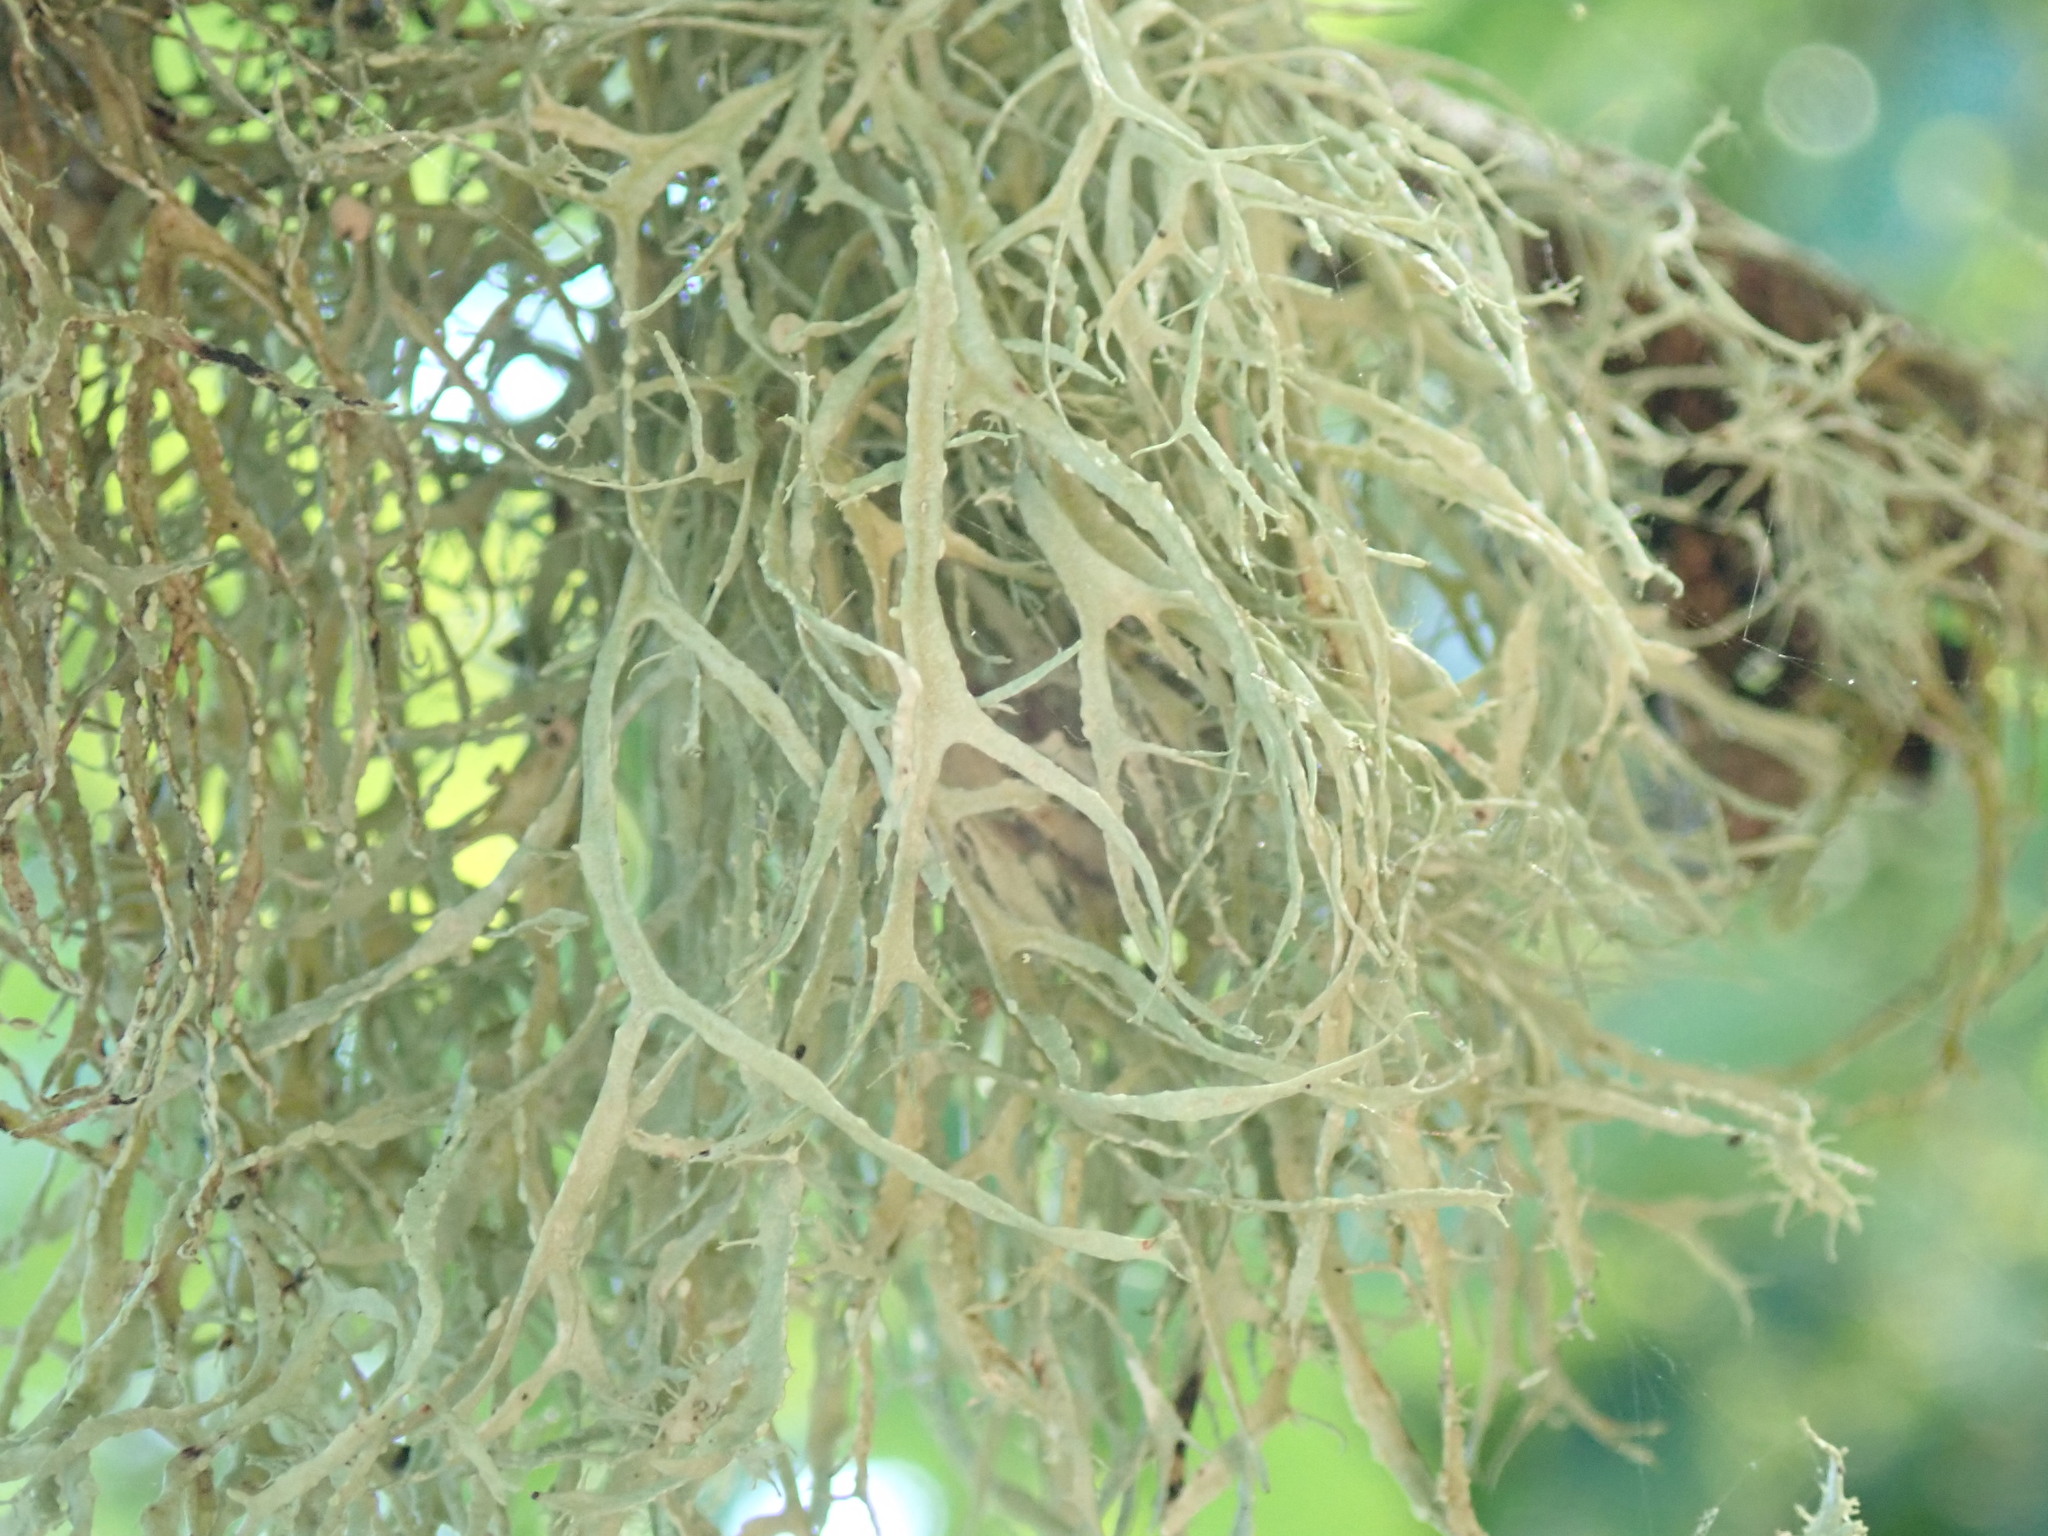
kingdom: Fungi
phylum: Ascomycota
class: Lecanoromycetes
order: Lecanorales
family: Ramalinaceae
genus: Ramalina
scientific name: Ramalina farinacea
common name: Farinose cartilage lichen
